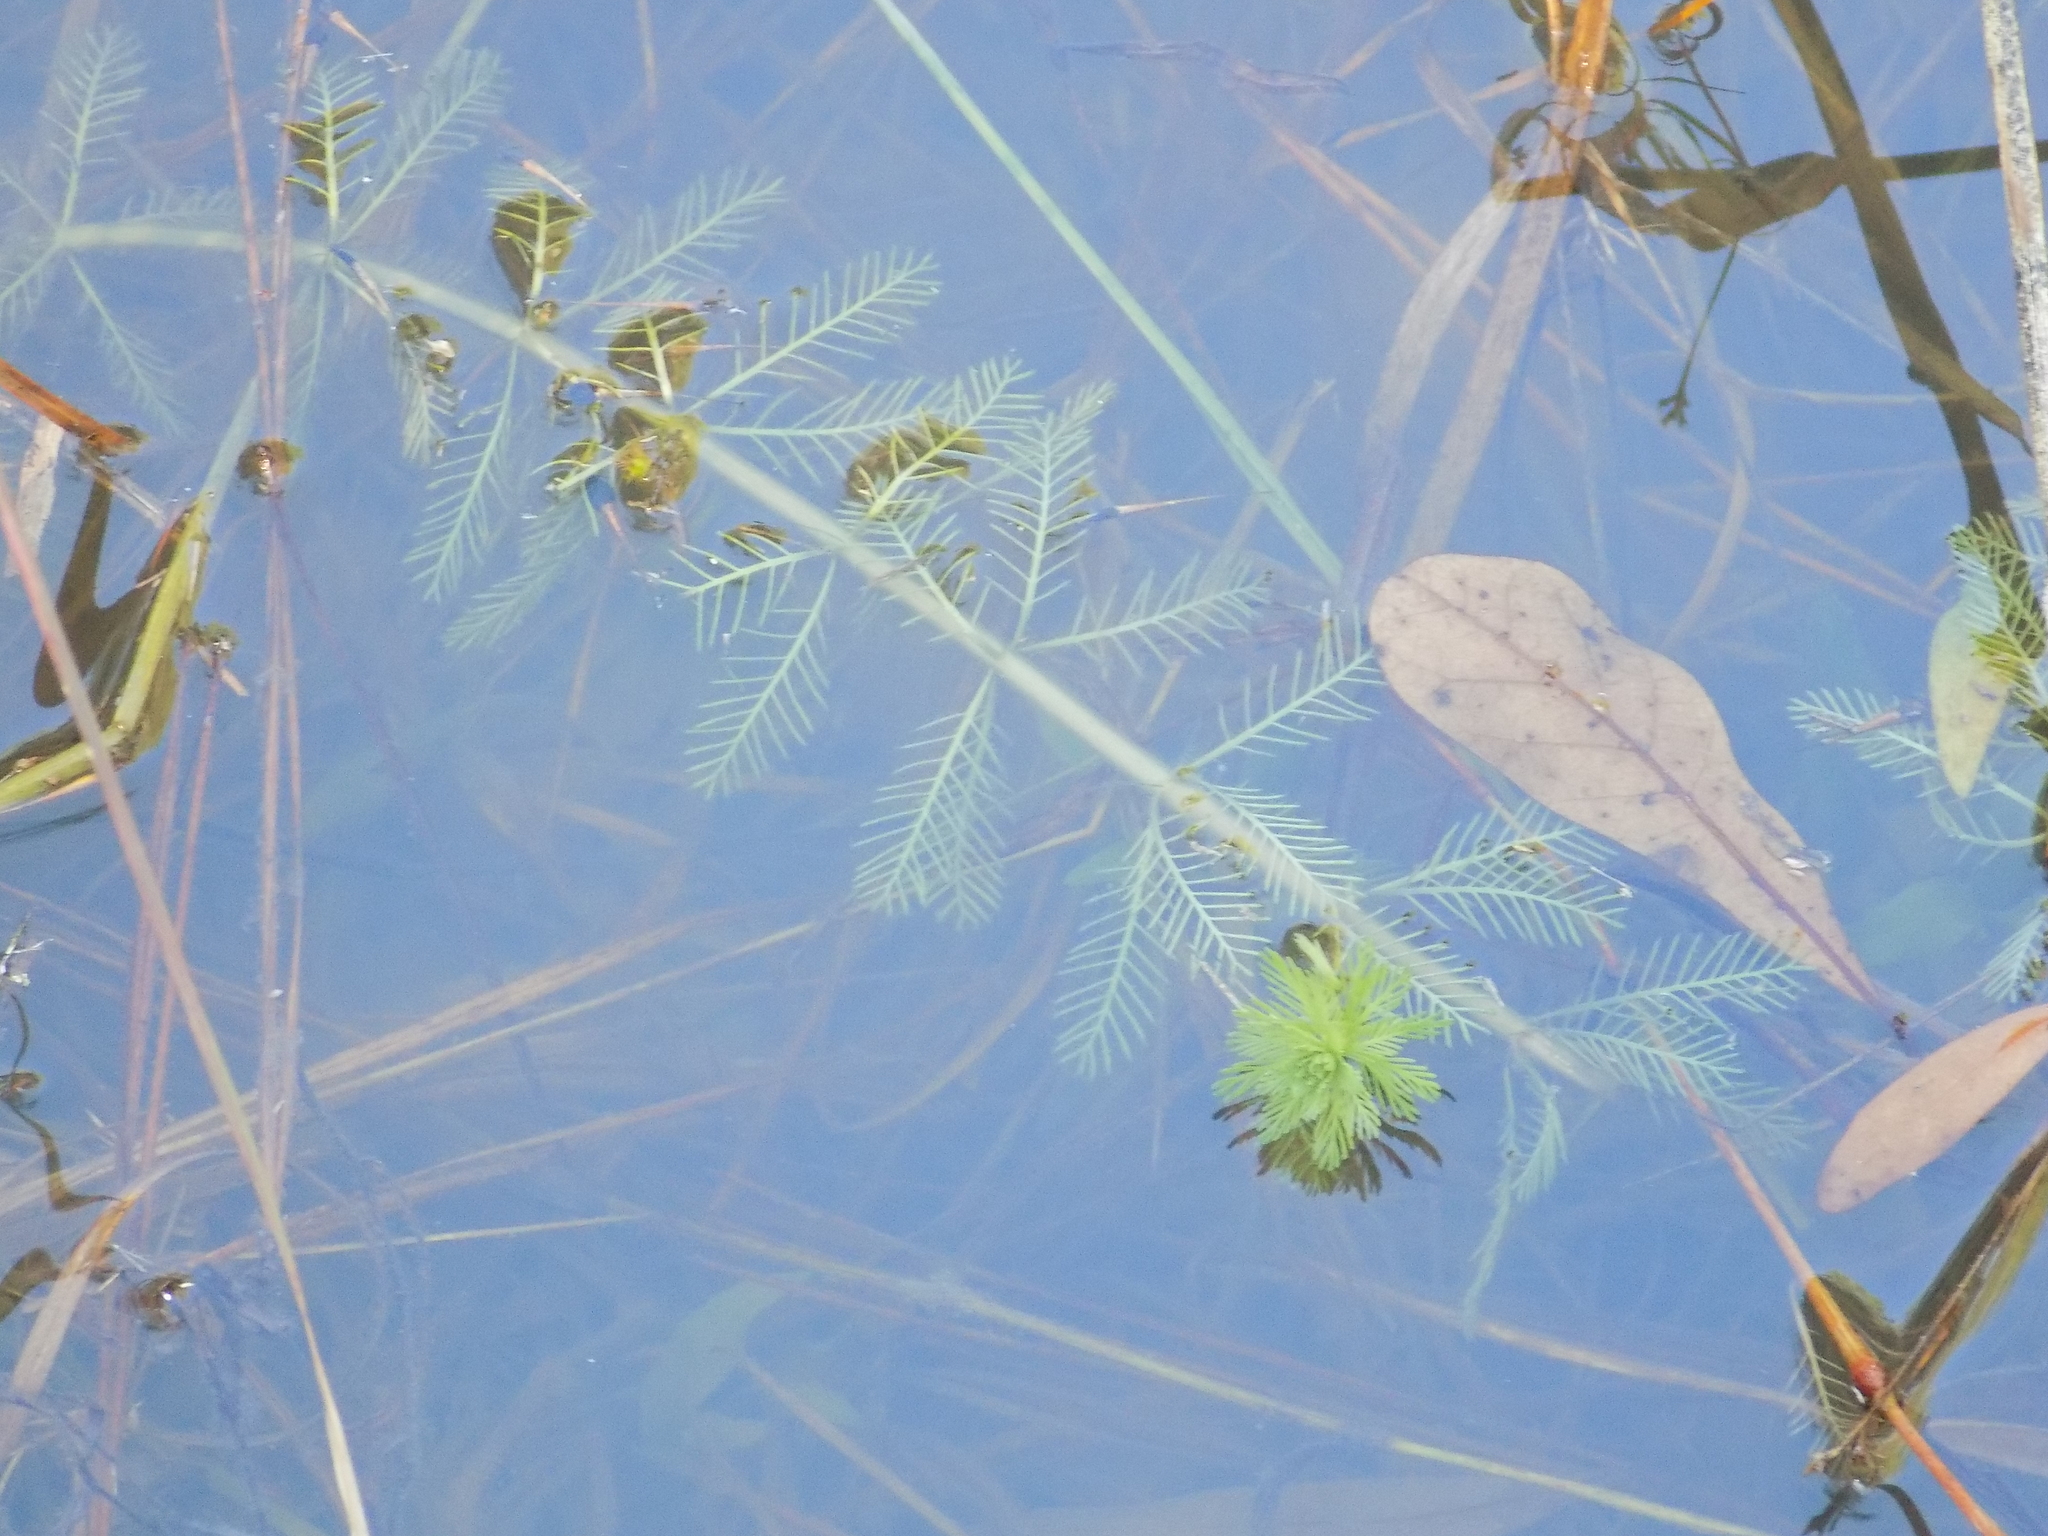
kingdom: Plantae
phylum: Tracheophyta
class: Magnoliopsida
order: Saxifragales
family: Haloragaceae
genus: Myriophyllum
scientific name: Myriophyllum aquaticum
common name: Parrot's feather
